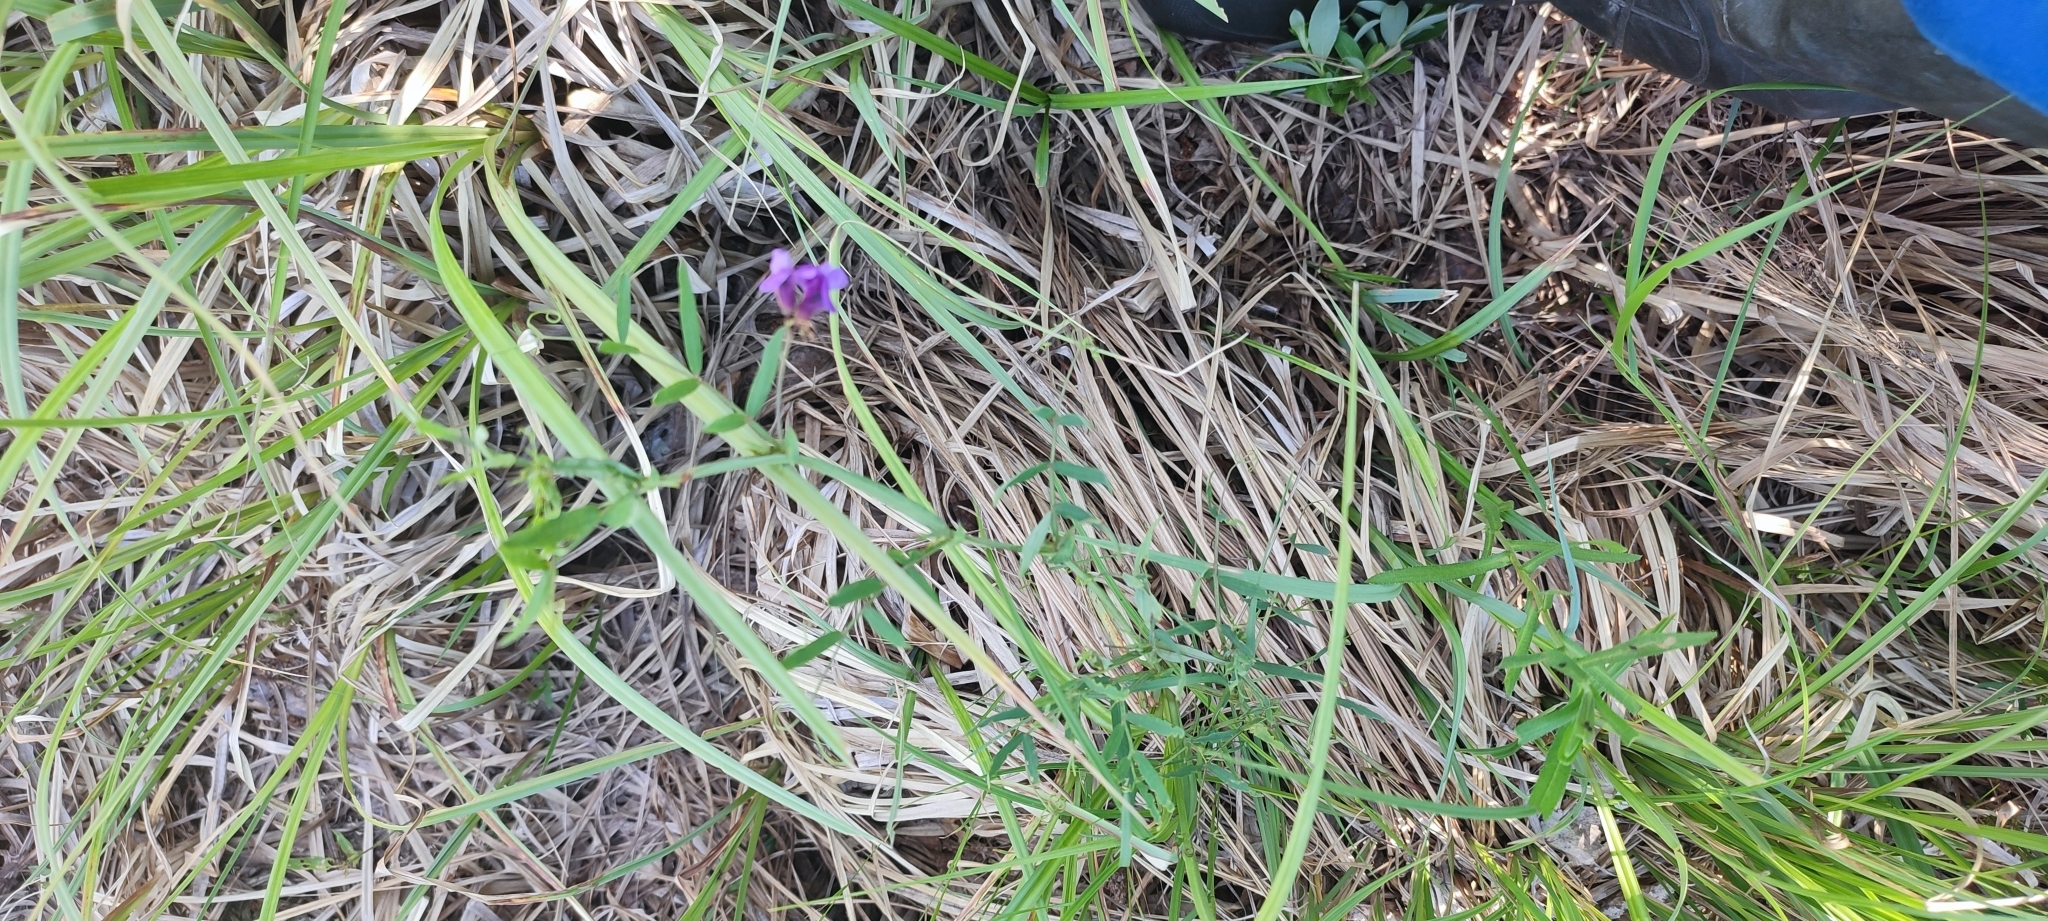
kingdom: Plantae
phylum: Tracheophyta
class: Magnoliopsida
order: Fabales
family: Fabaceae
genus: Lathyrus
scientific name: Lathyrus palustris
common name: Marsh pea
